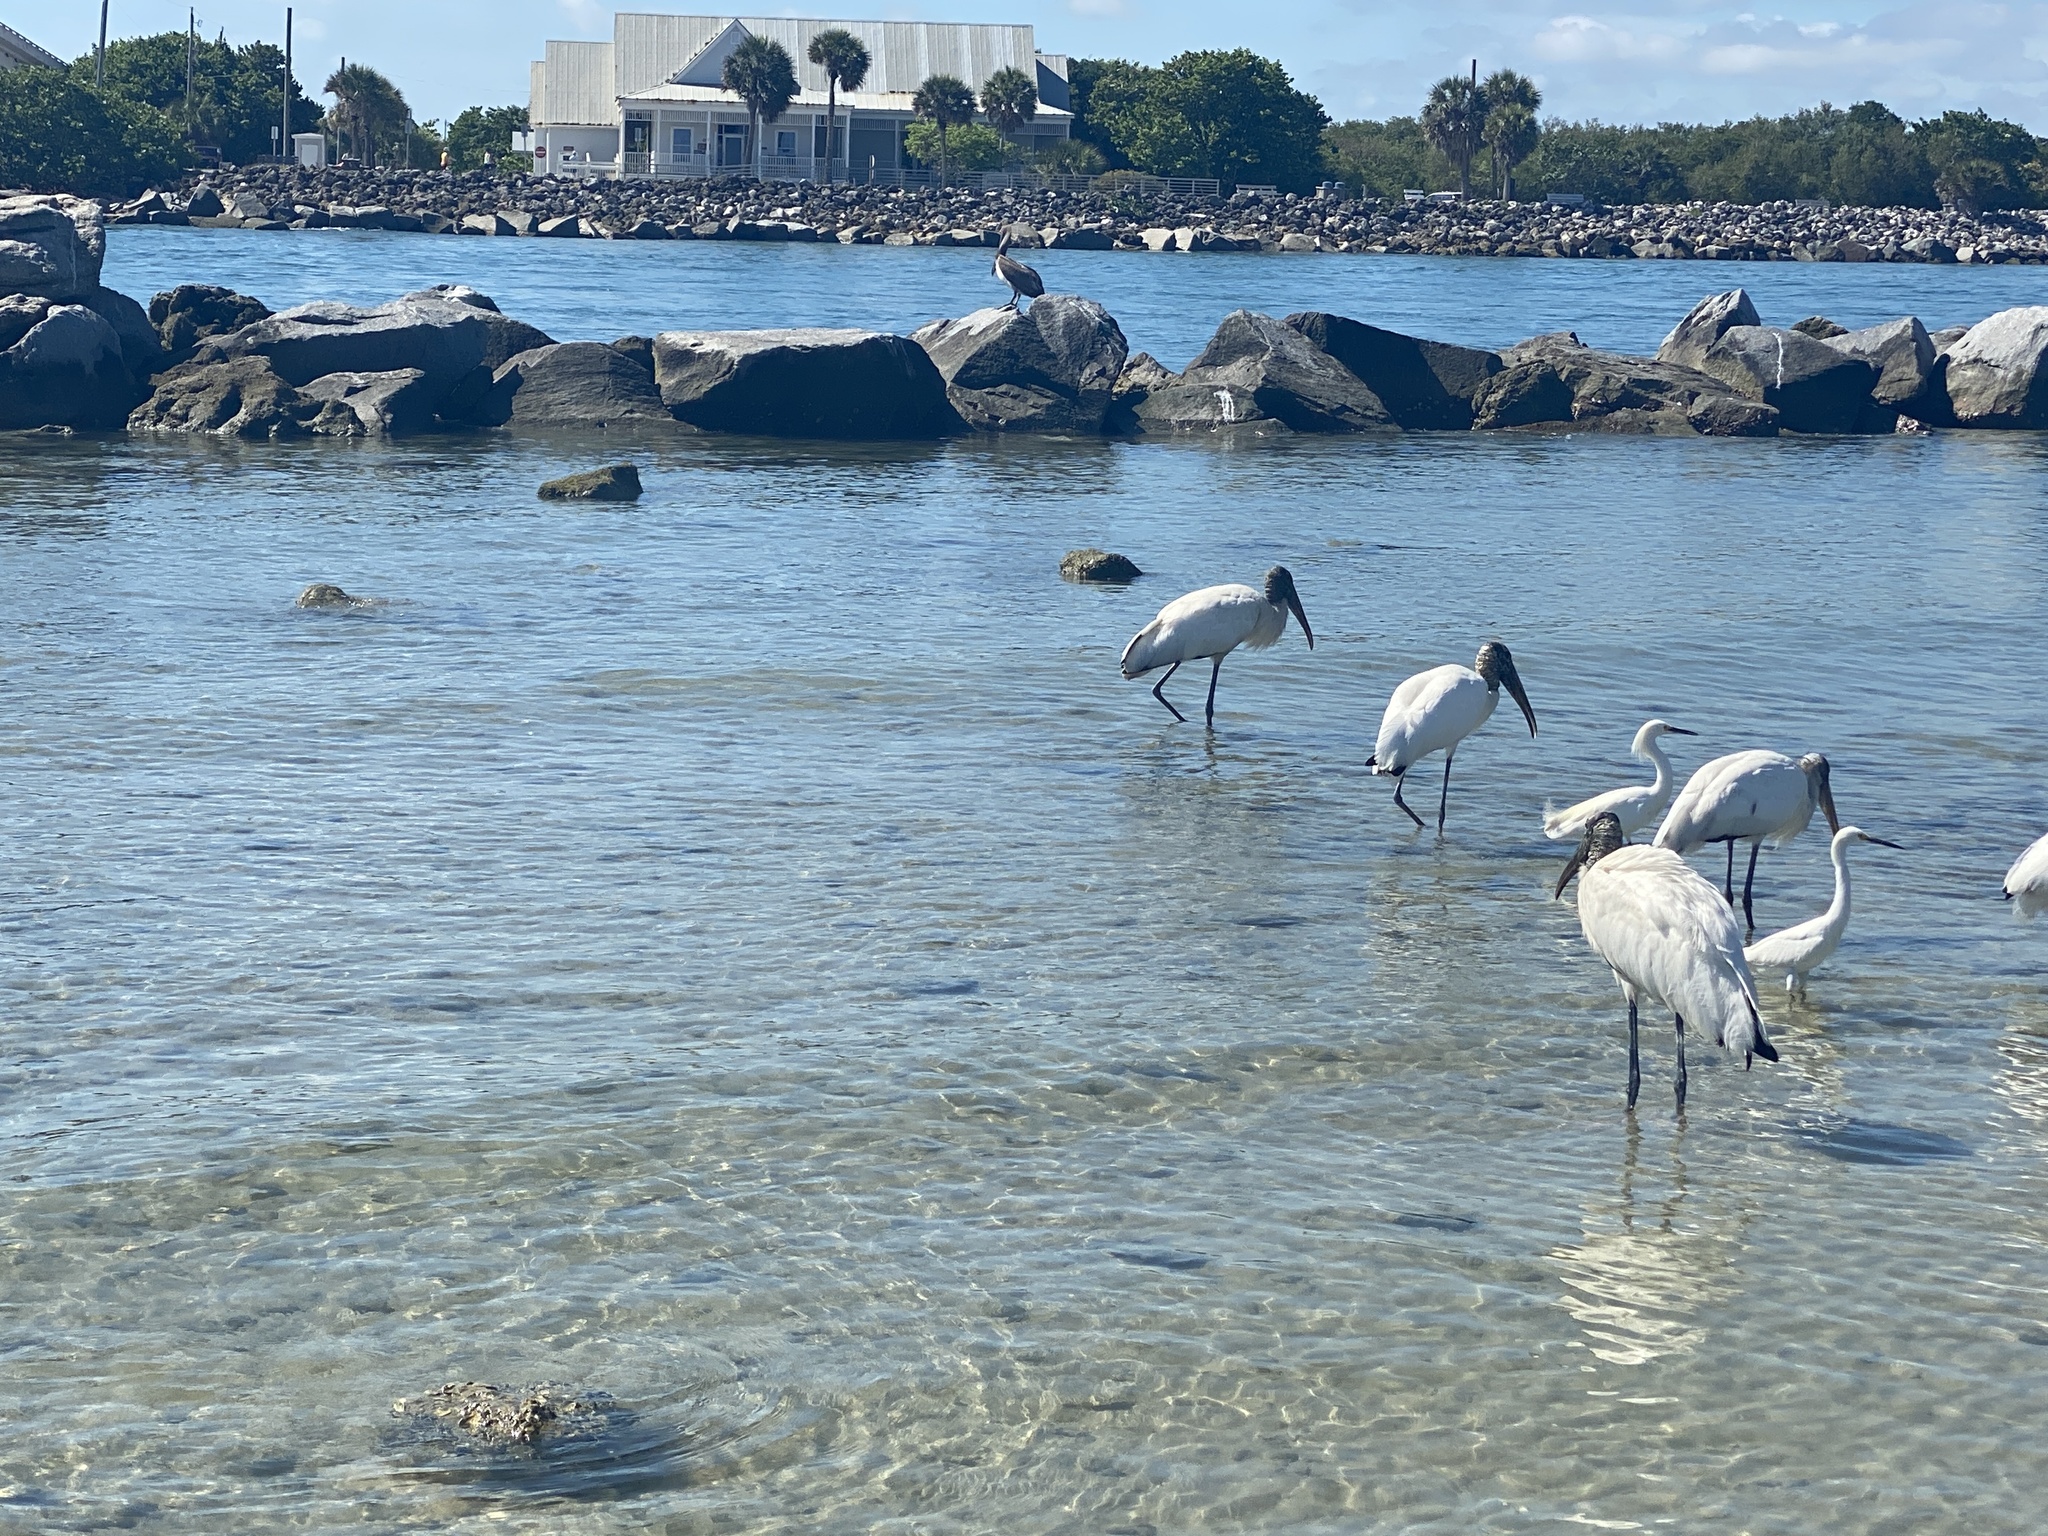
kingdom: Animalia
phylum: Chordata
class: Aves
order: Ciconiiformes
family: Ciconiidae
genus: Mycteria
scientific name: Mycteria americana
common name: Wood stork
